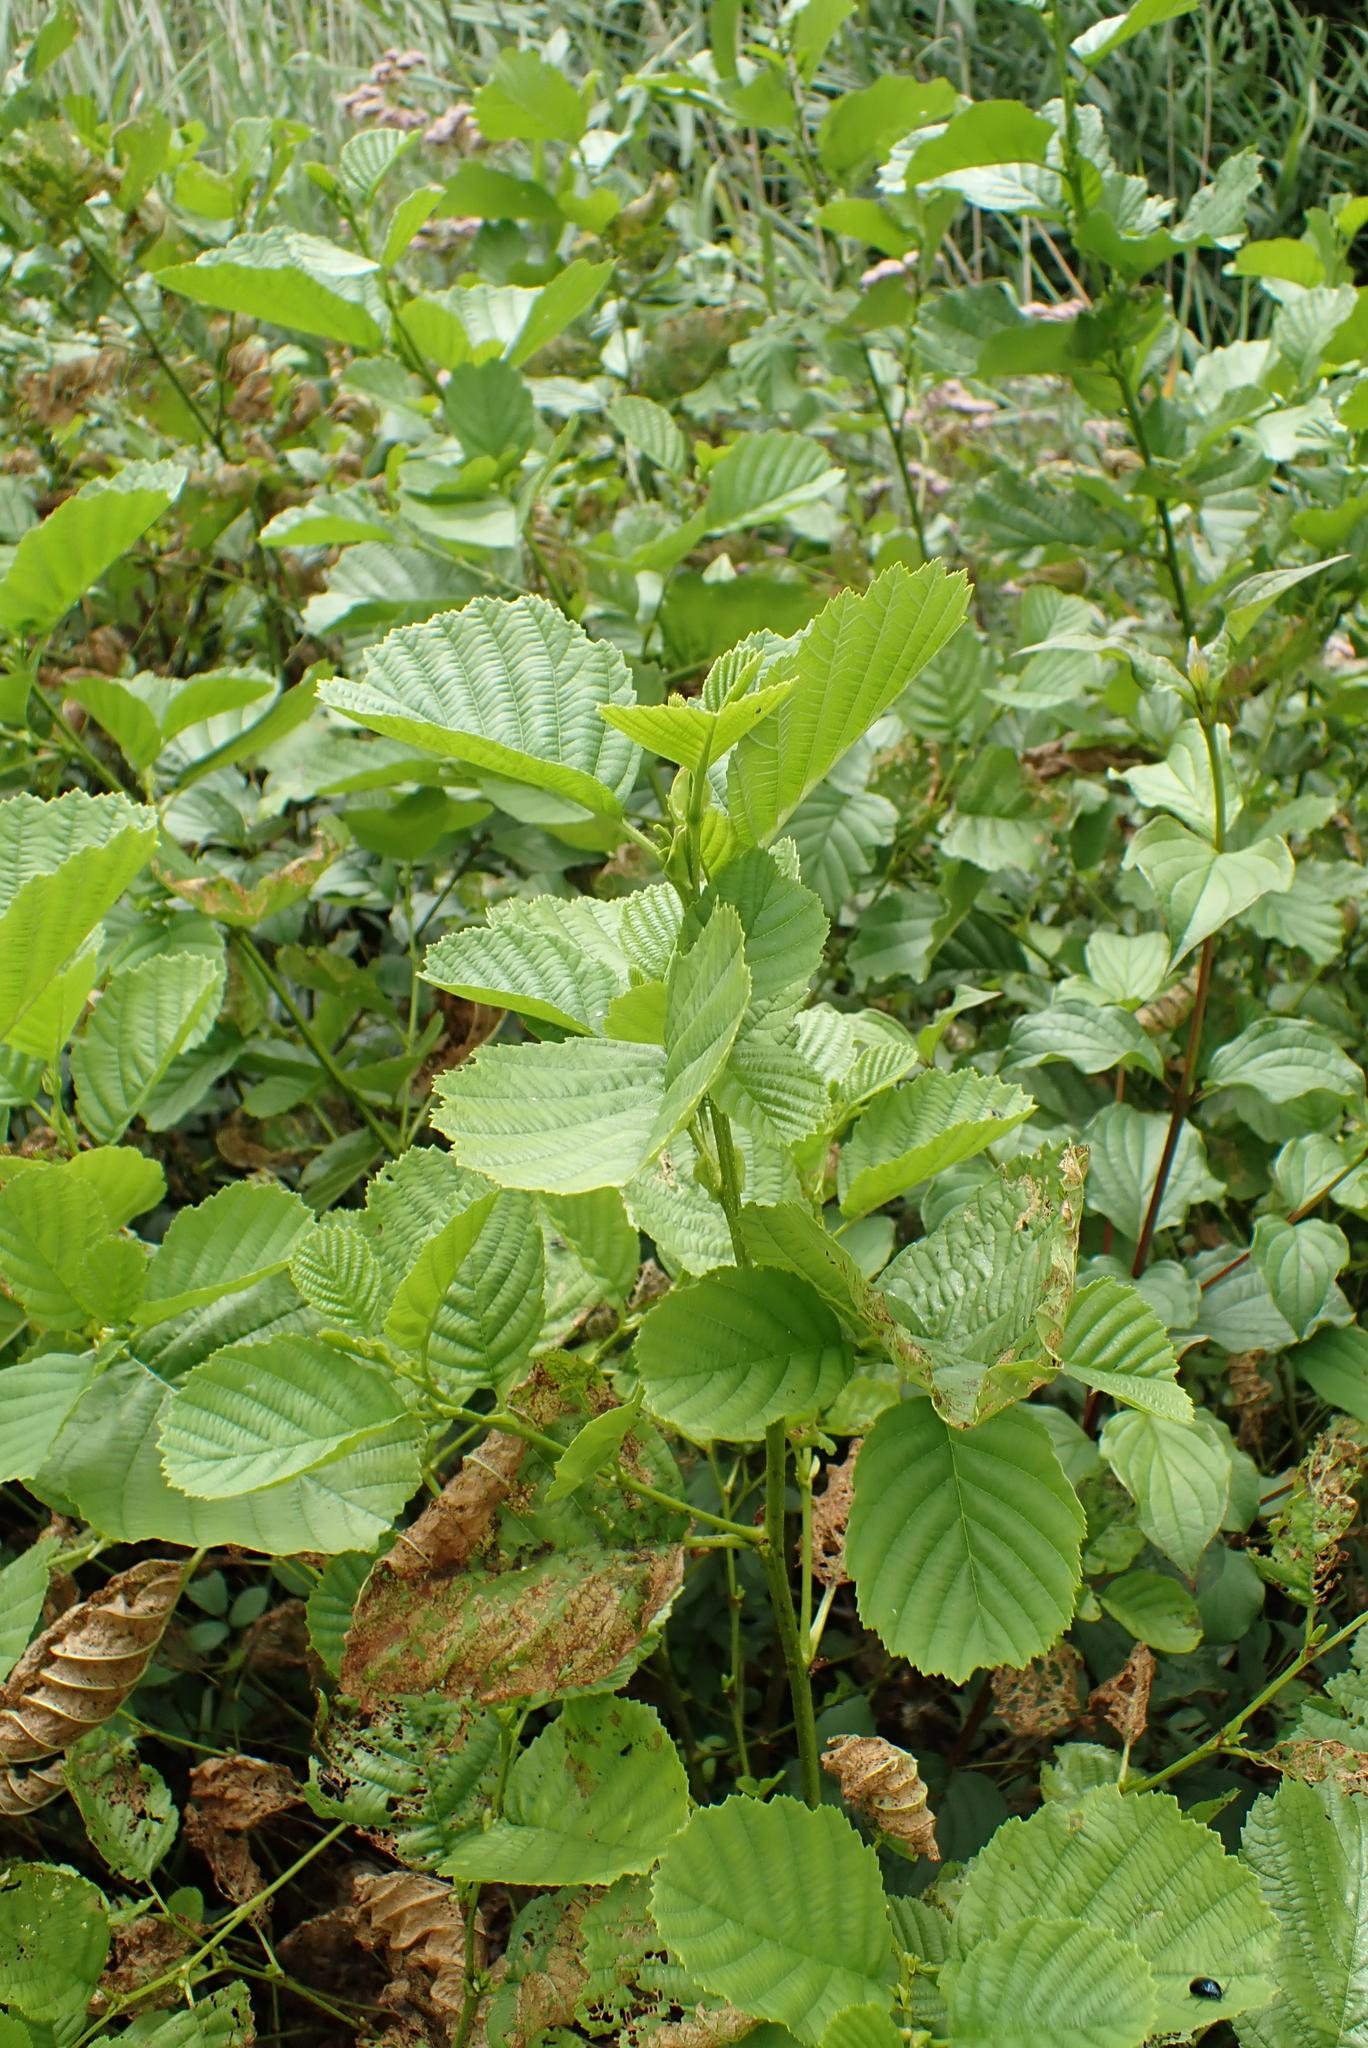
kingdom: Plantae
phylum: Tracheophyta
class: Magnoliopsida
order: Fagales
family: Betulaceae
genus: Alnus
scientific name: Alnus glutinosa
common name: Black alder
